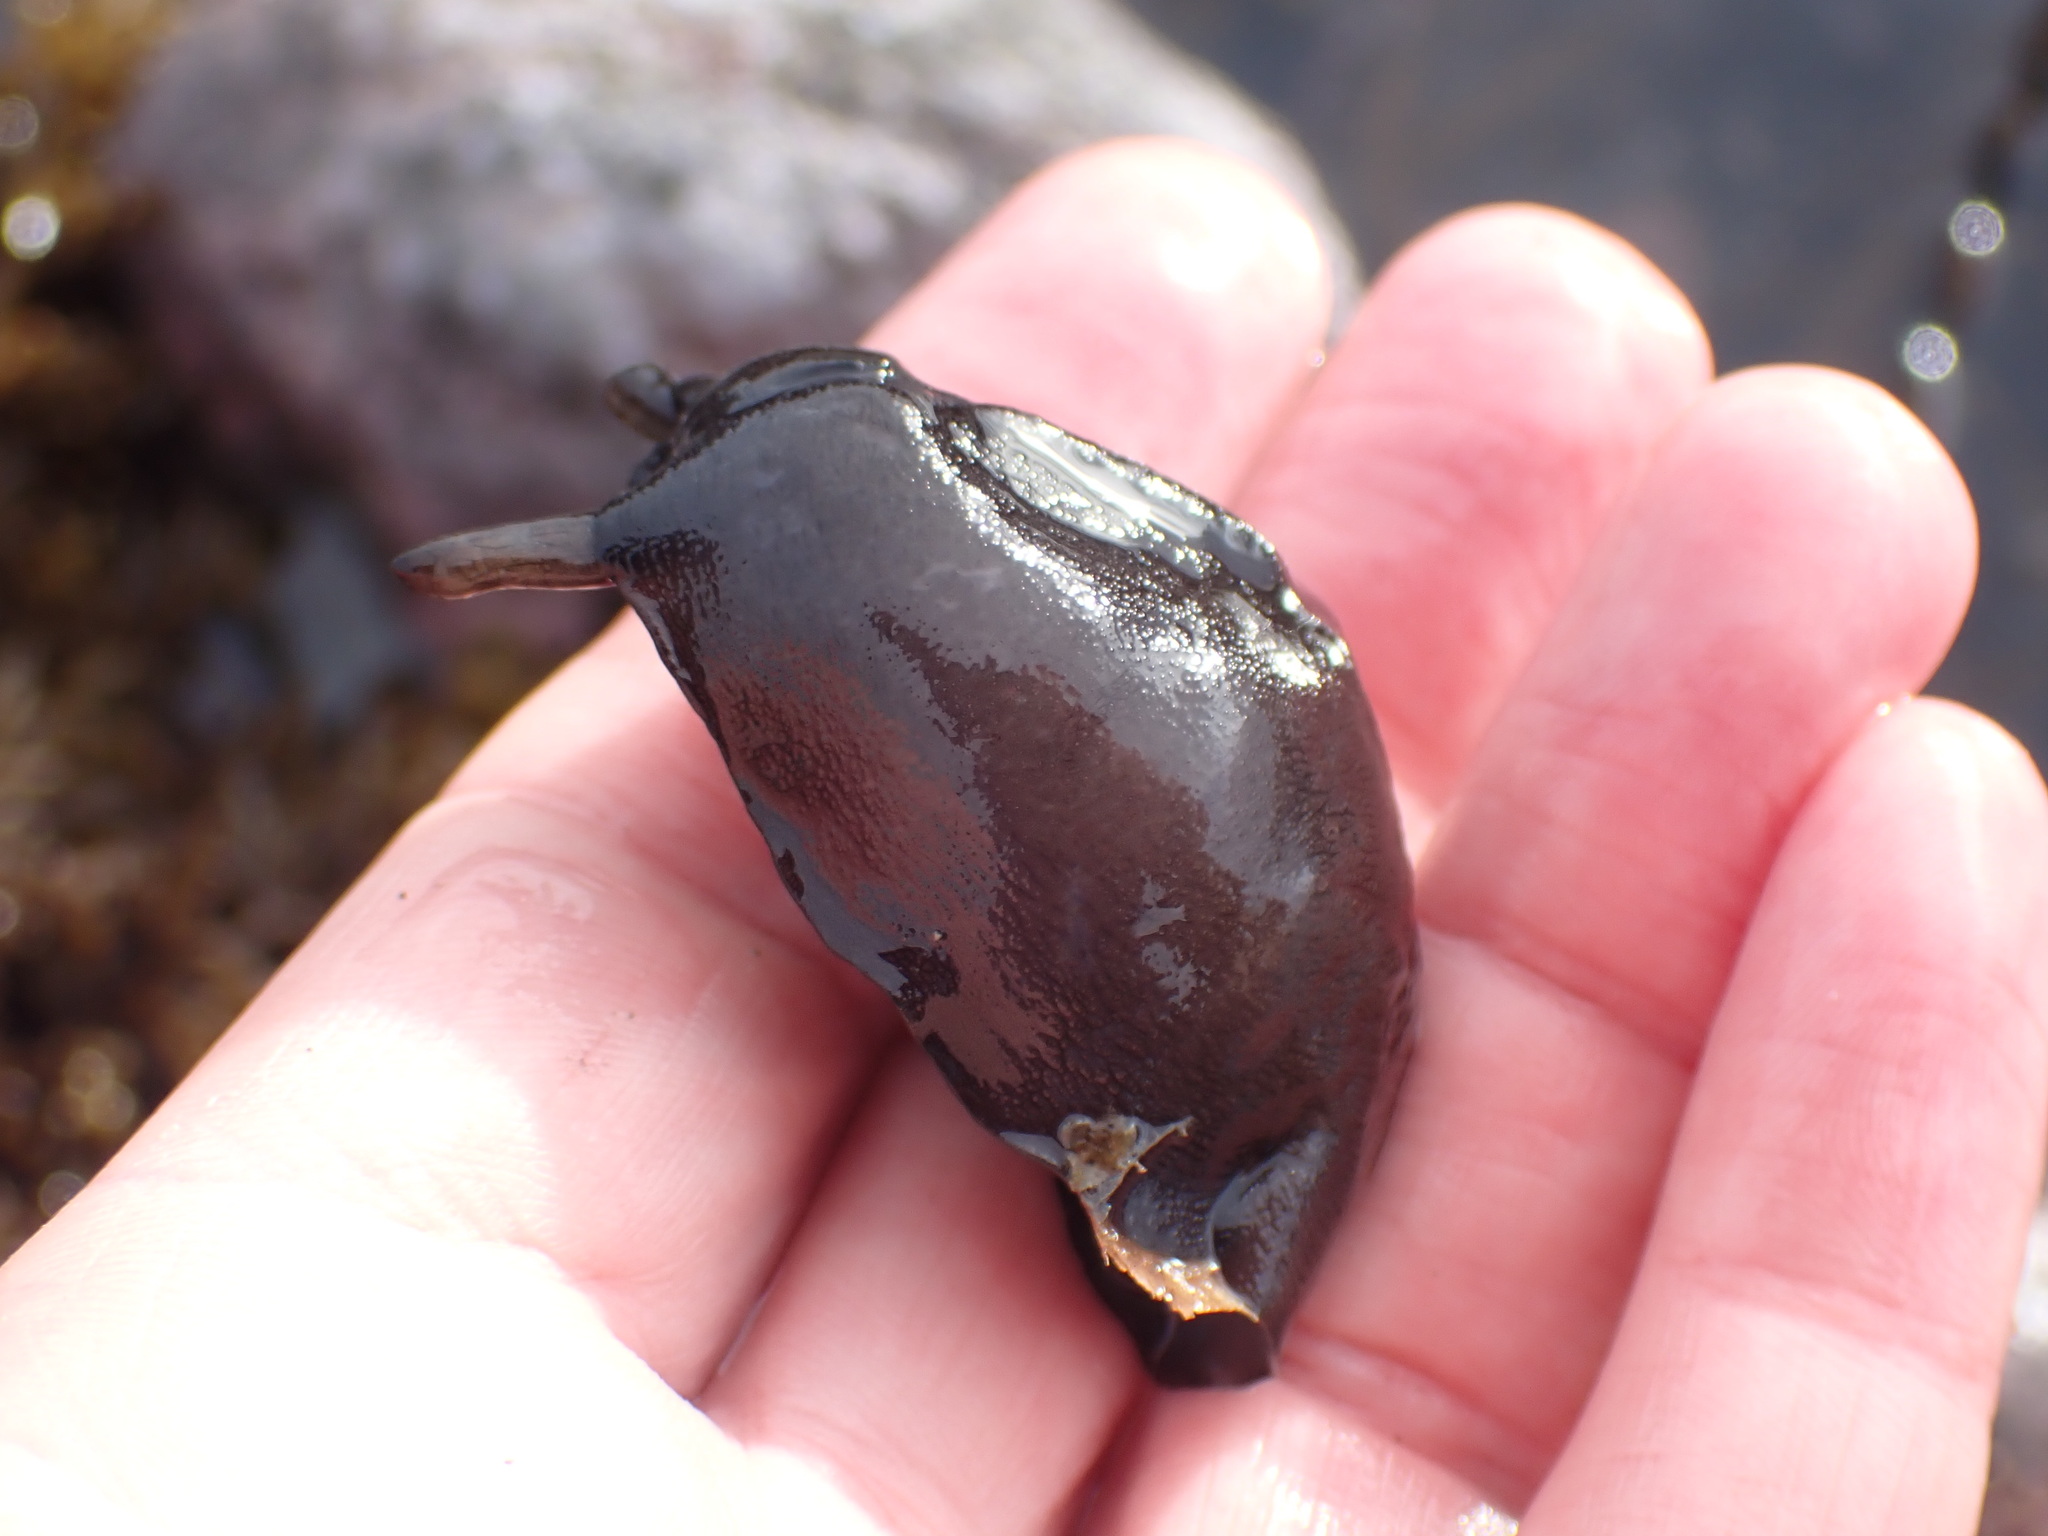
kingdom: Animalia
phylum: Mollusca
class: Gastropoda
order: Lepetellida
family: Fissurellidae
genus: Scutus
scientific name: Scutus breviculus
